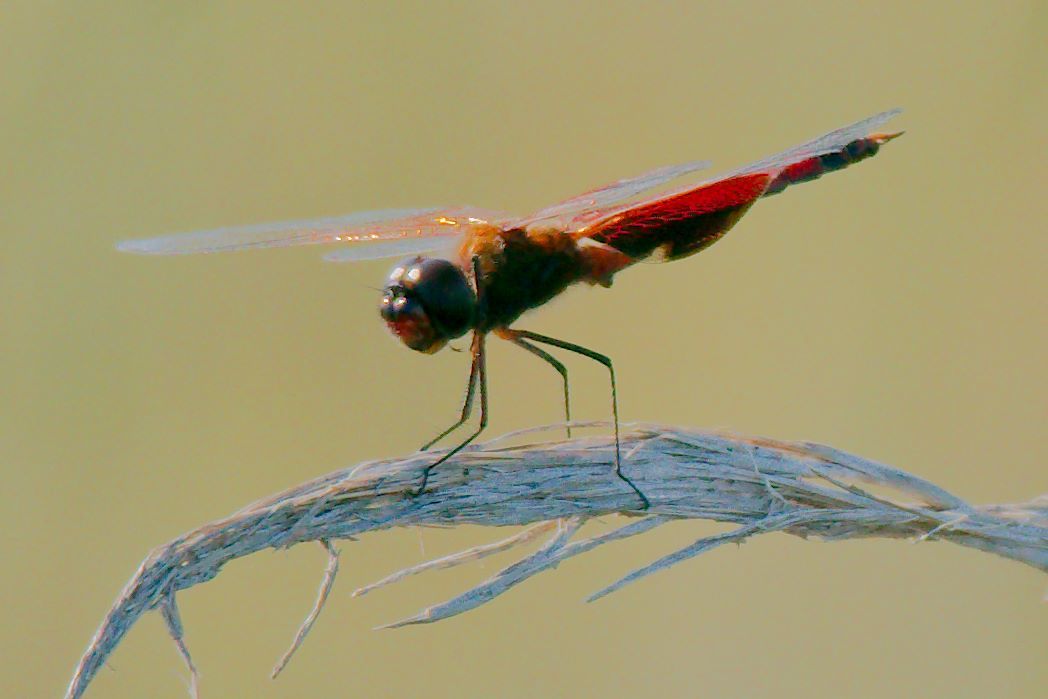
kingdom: Animalia
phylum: Arthropoda
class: Insecta
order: Odonata
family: Libellulidae
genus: Tramea
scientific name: Tramea carolina
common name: Carolina saddlebags
